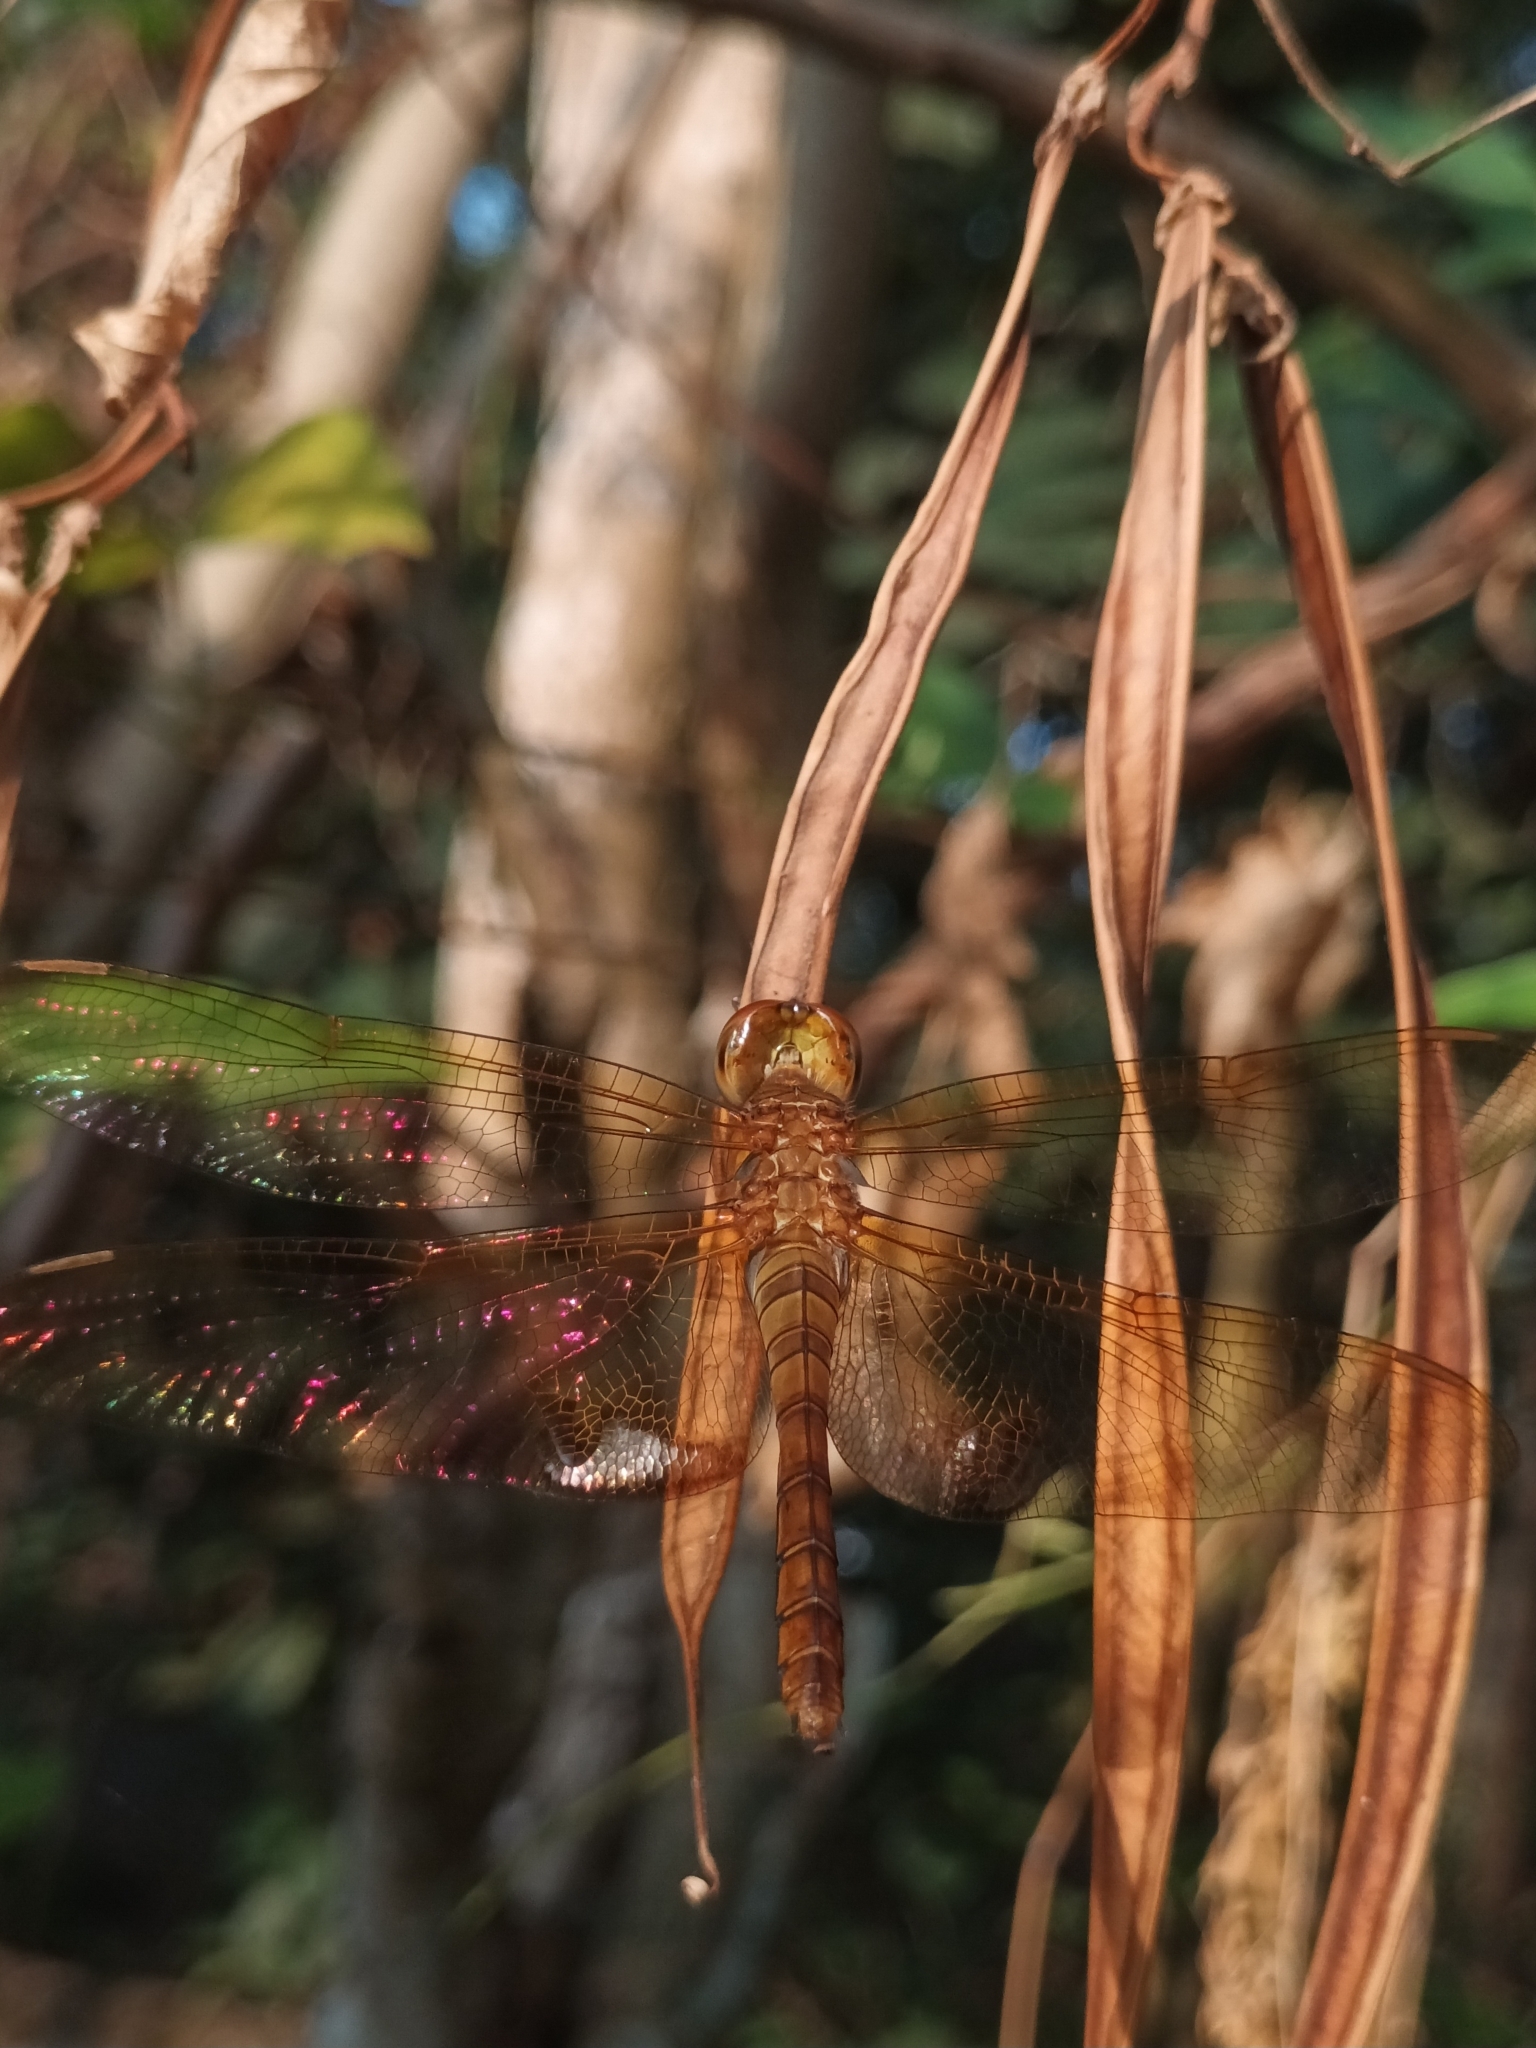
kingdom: Animalia
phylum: Arthropoda
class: Insecta
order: Odonata
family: Libellulidae
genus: Hydrobasileus
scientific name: Hydrobasileus croceus
